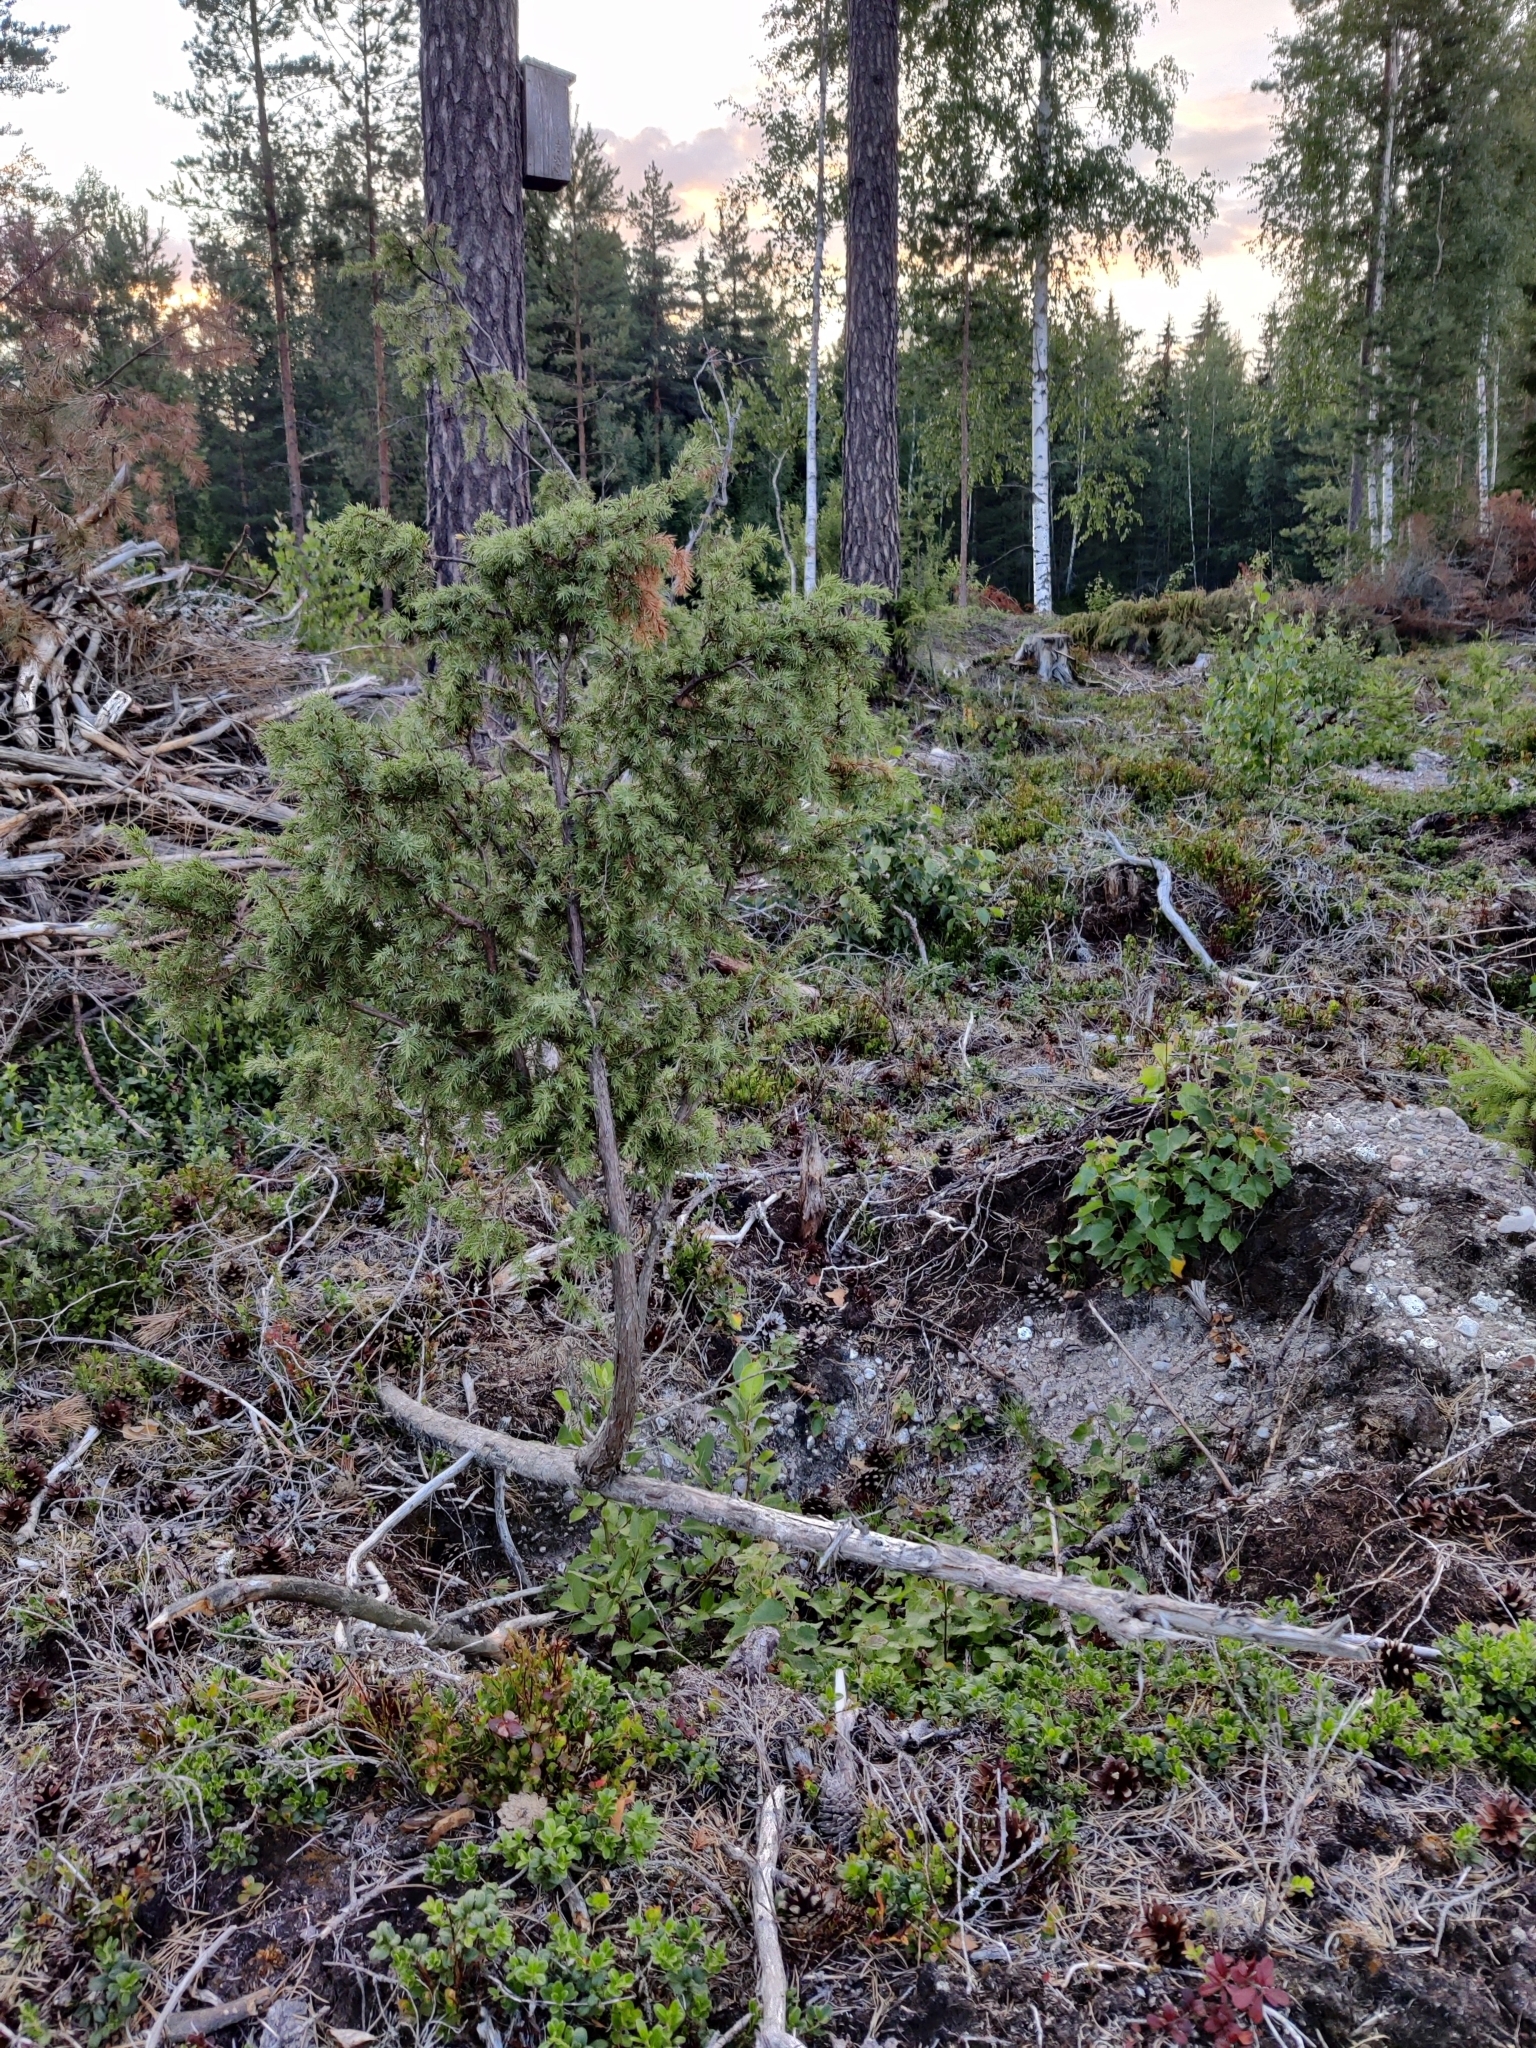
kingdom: Plantae
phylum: Tracheophyta
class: Pinopsida
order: Pinales
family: Cupressaceae
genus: Juniperus
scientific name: Juniperus communis
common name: Common juniper
